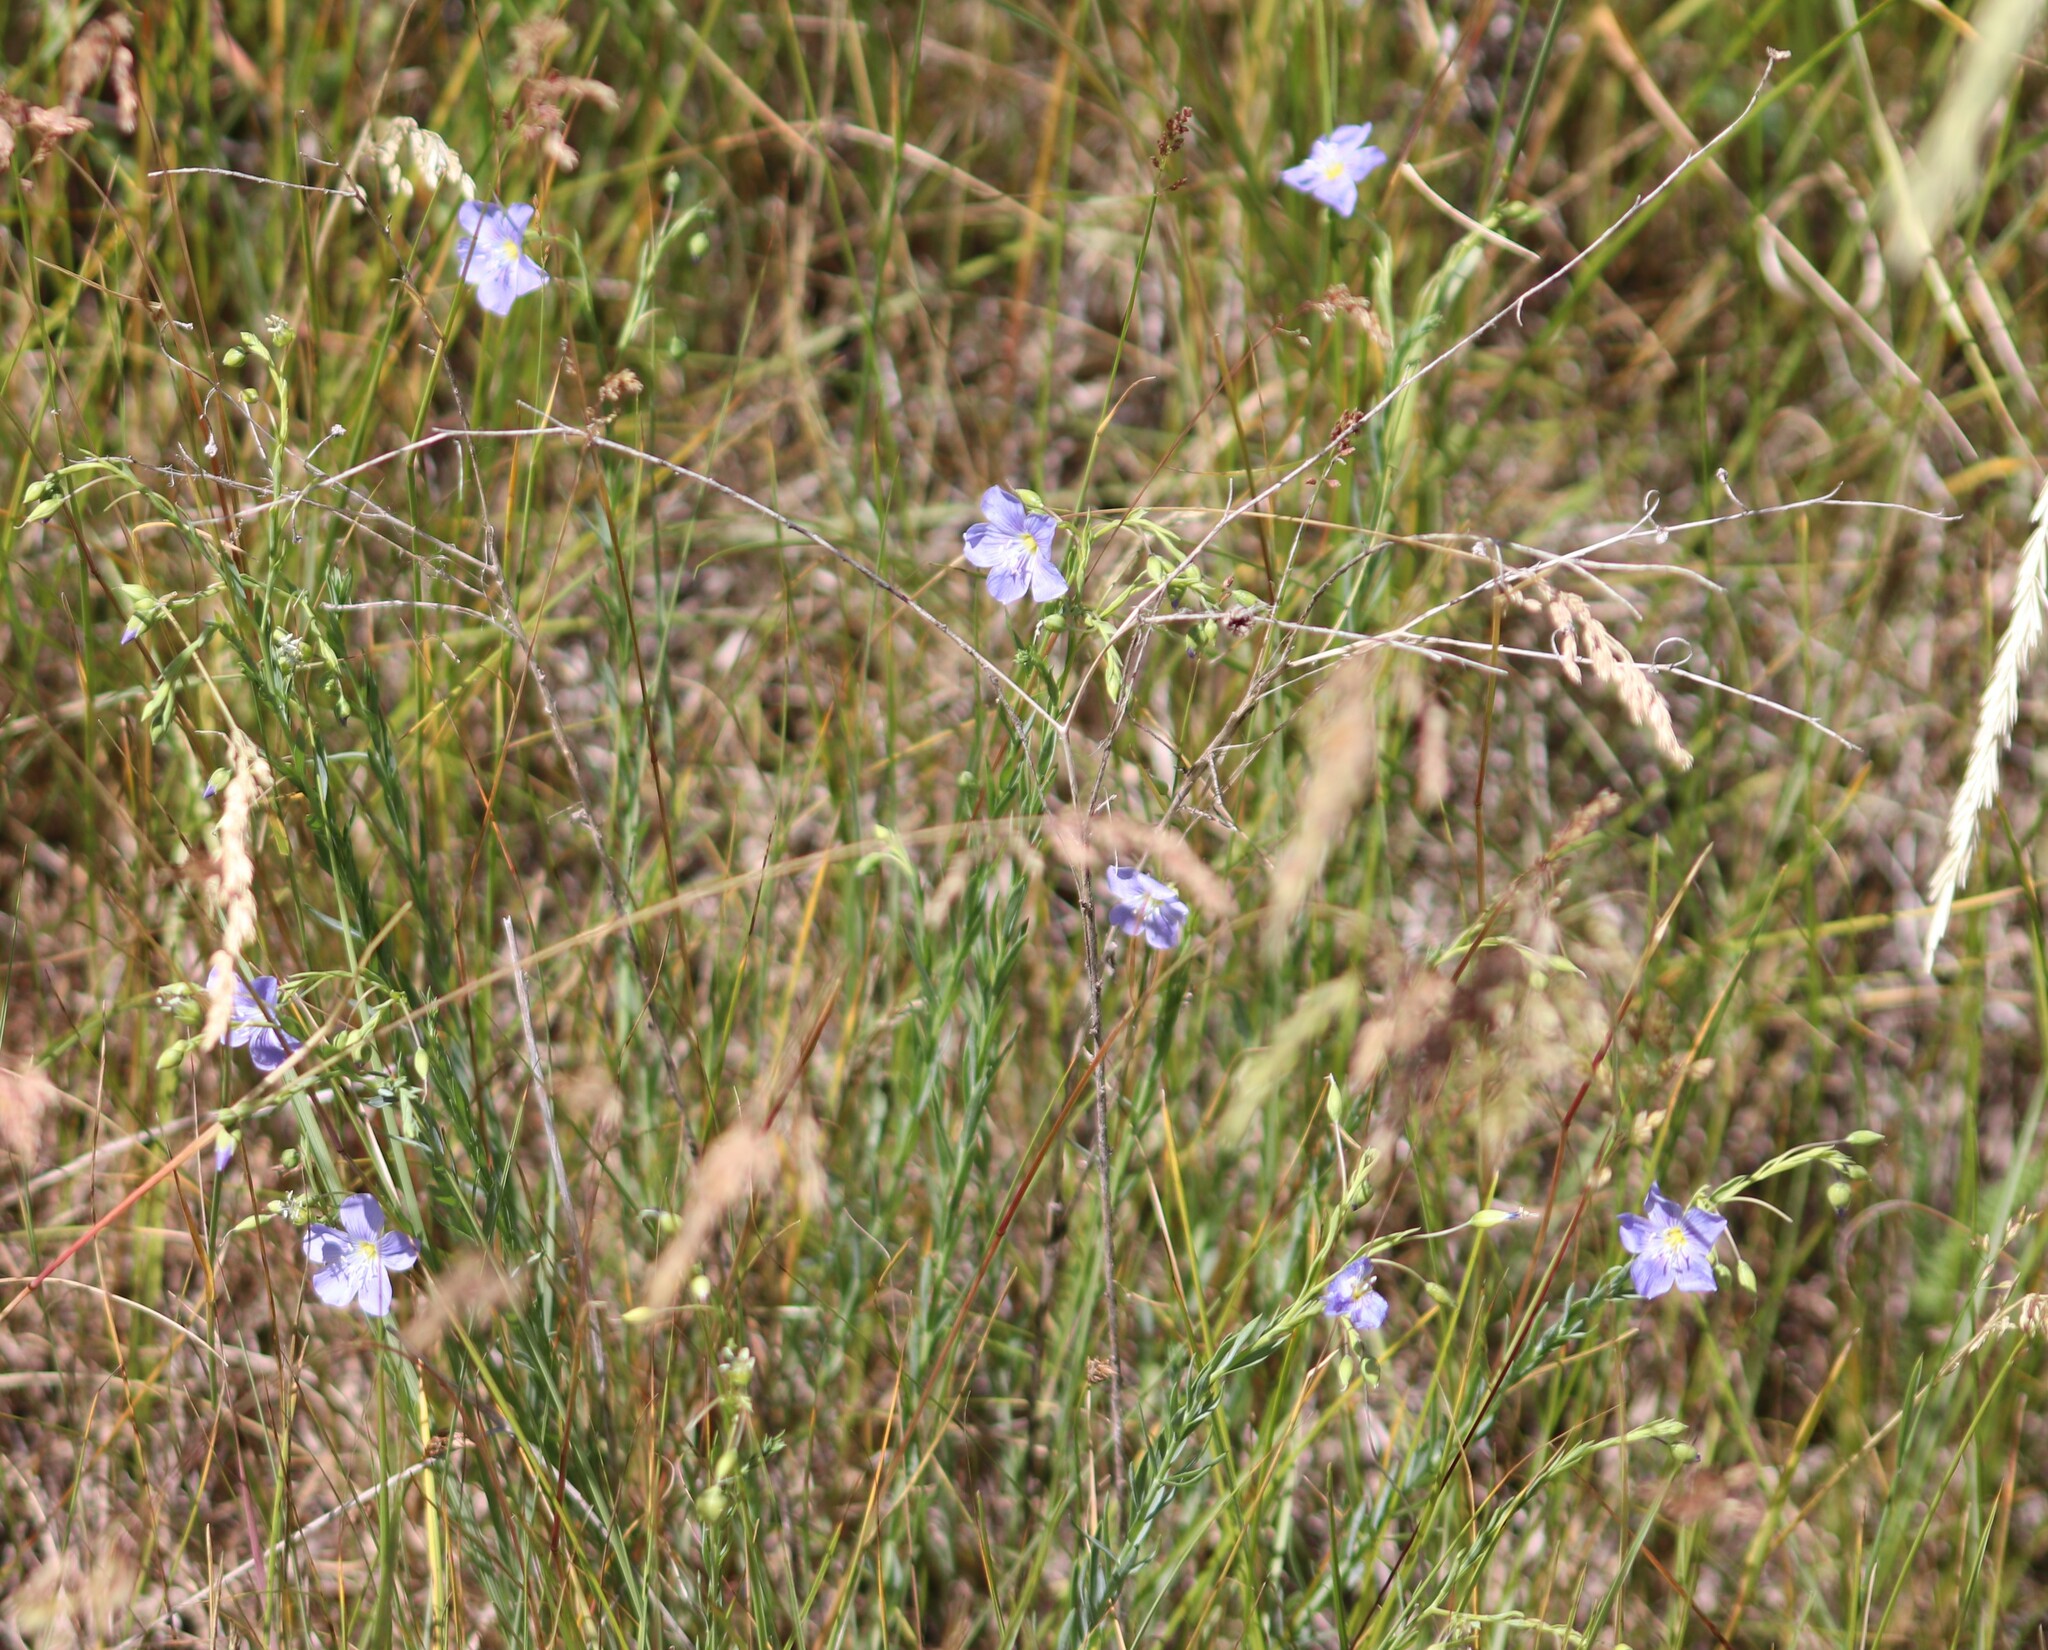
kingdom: Plantae
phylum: Tracheophyta
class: Magnoliopsida
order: Malpighiales
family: Linaceae
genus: Linum
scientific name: Linum lewisii
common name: Prairie flax
